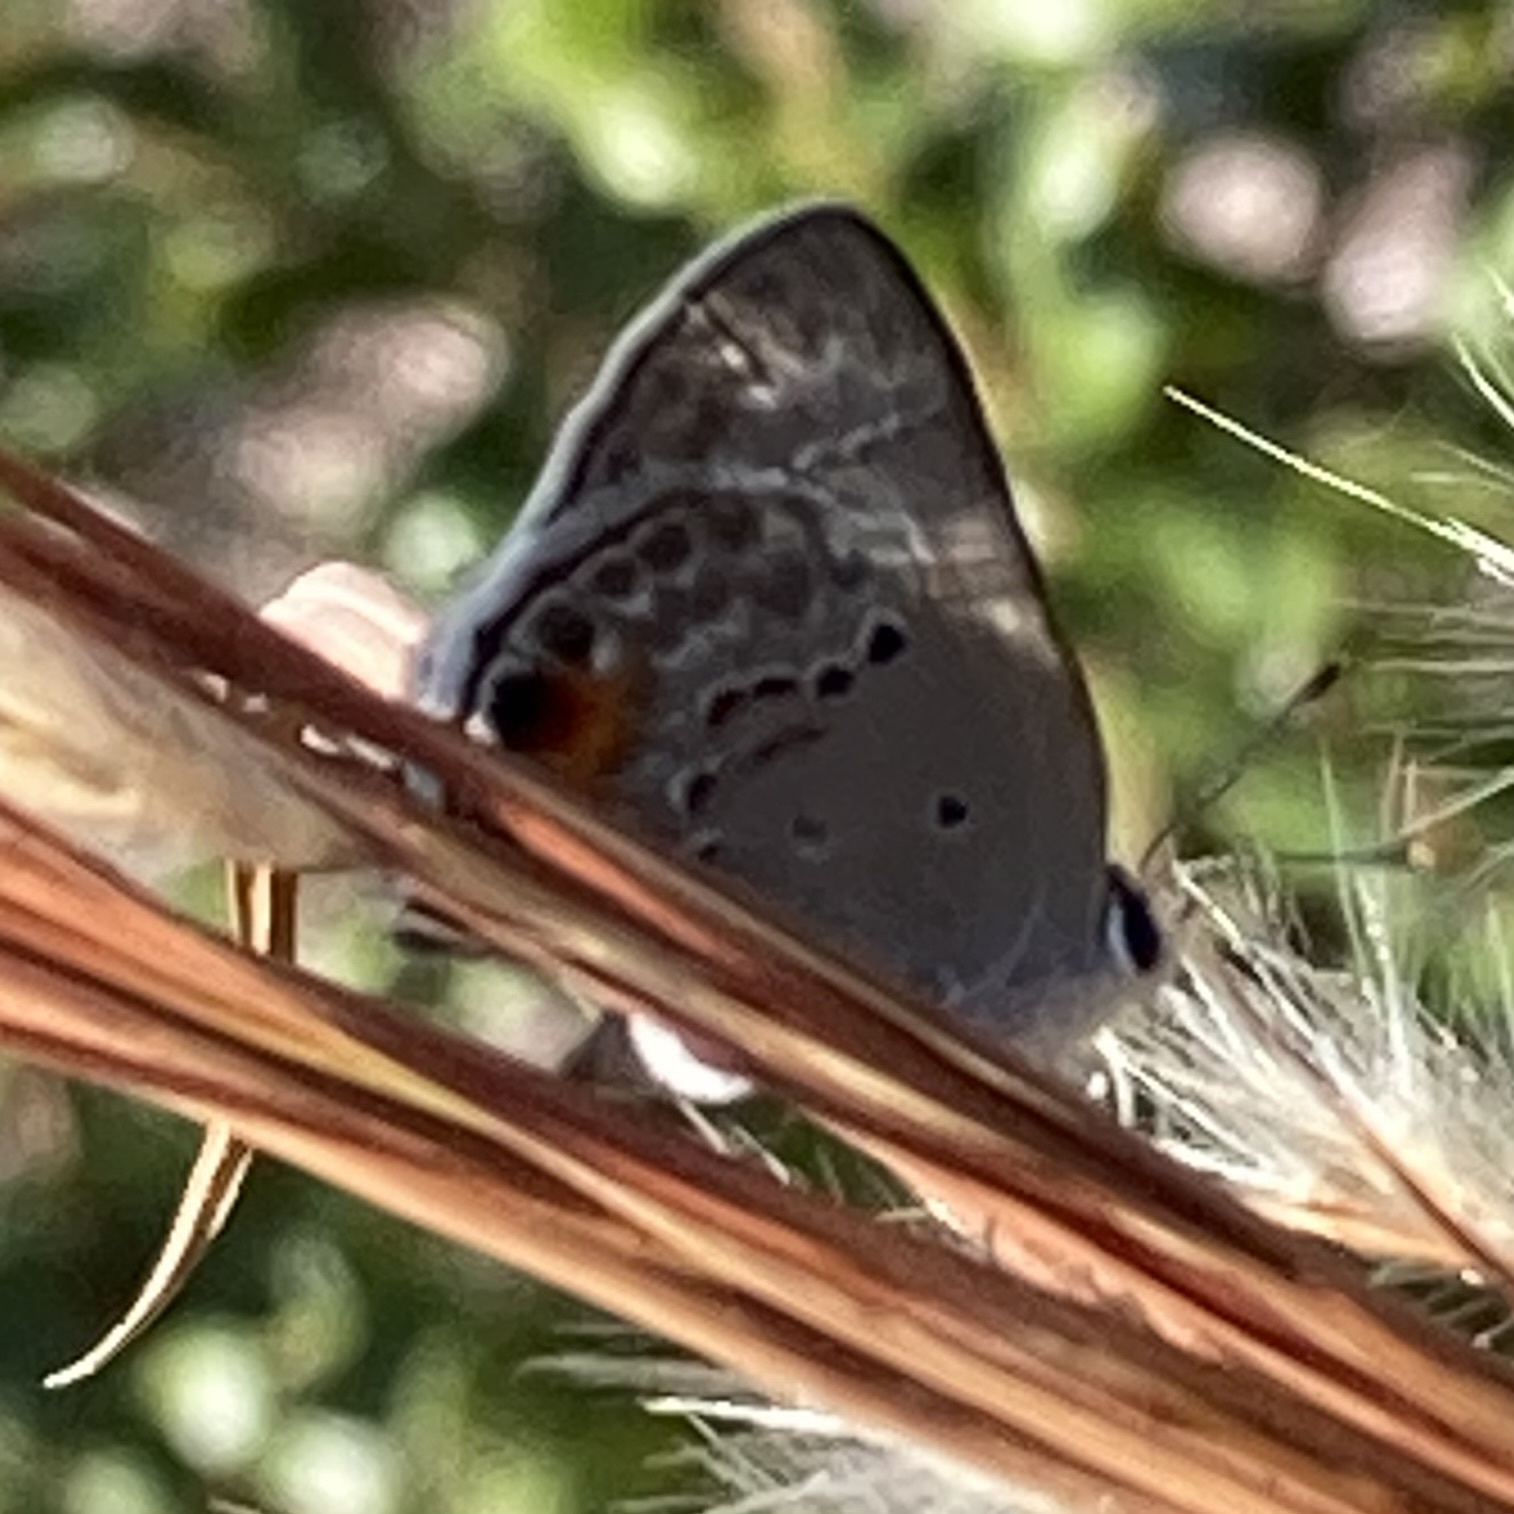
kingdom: Animalia
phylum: Arthropoda
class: Insecta
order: Lepidoptera
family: Lycaenidae
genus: Callicista
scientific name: Callicista columella
